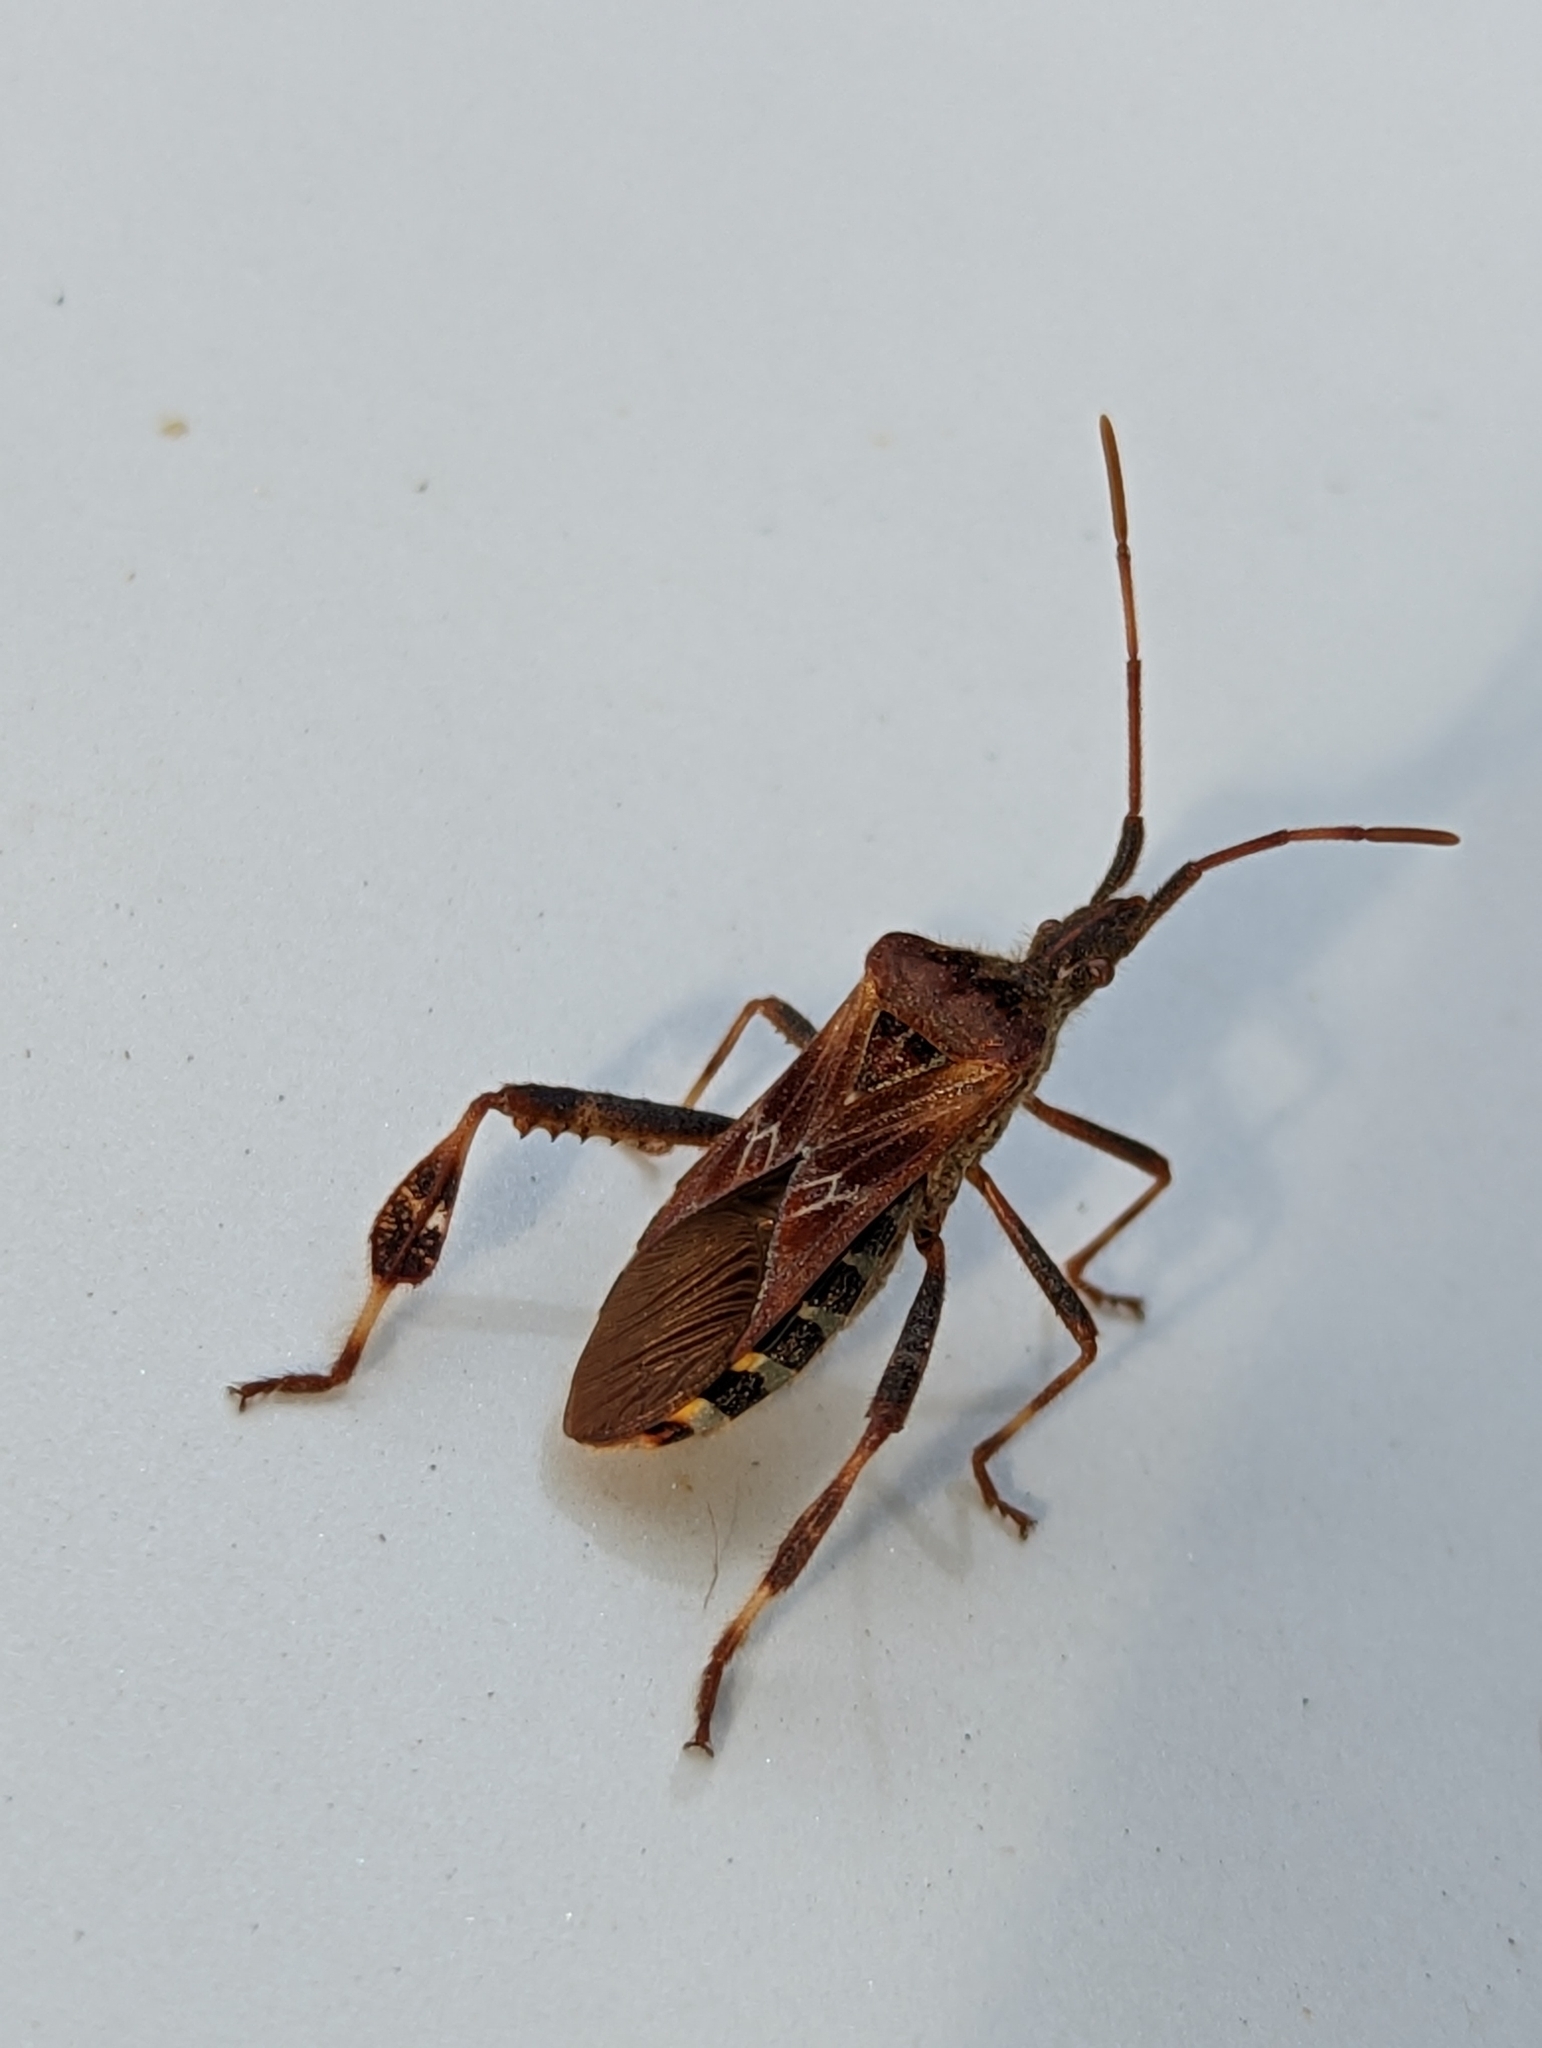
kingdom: Animalia
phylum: Arthropoda
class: Insecta
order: Hemiptera
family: Coreidae
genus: Leptoglossus
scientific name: Leptoglossus occidentalis
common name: Western conifer-seed bug
